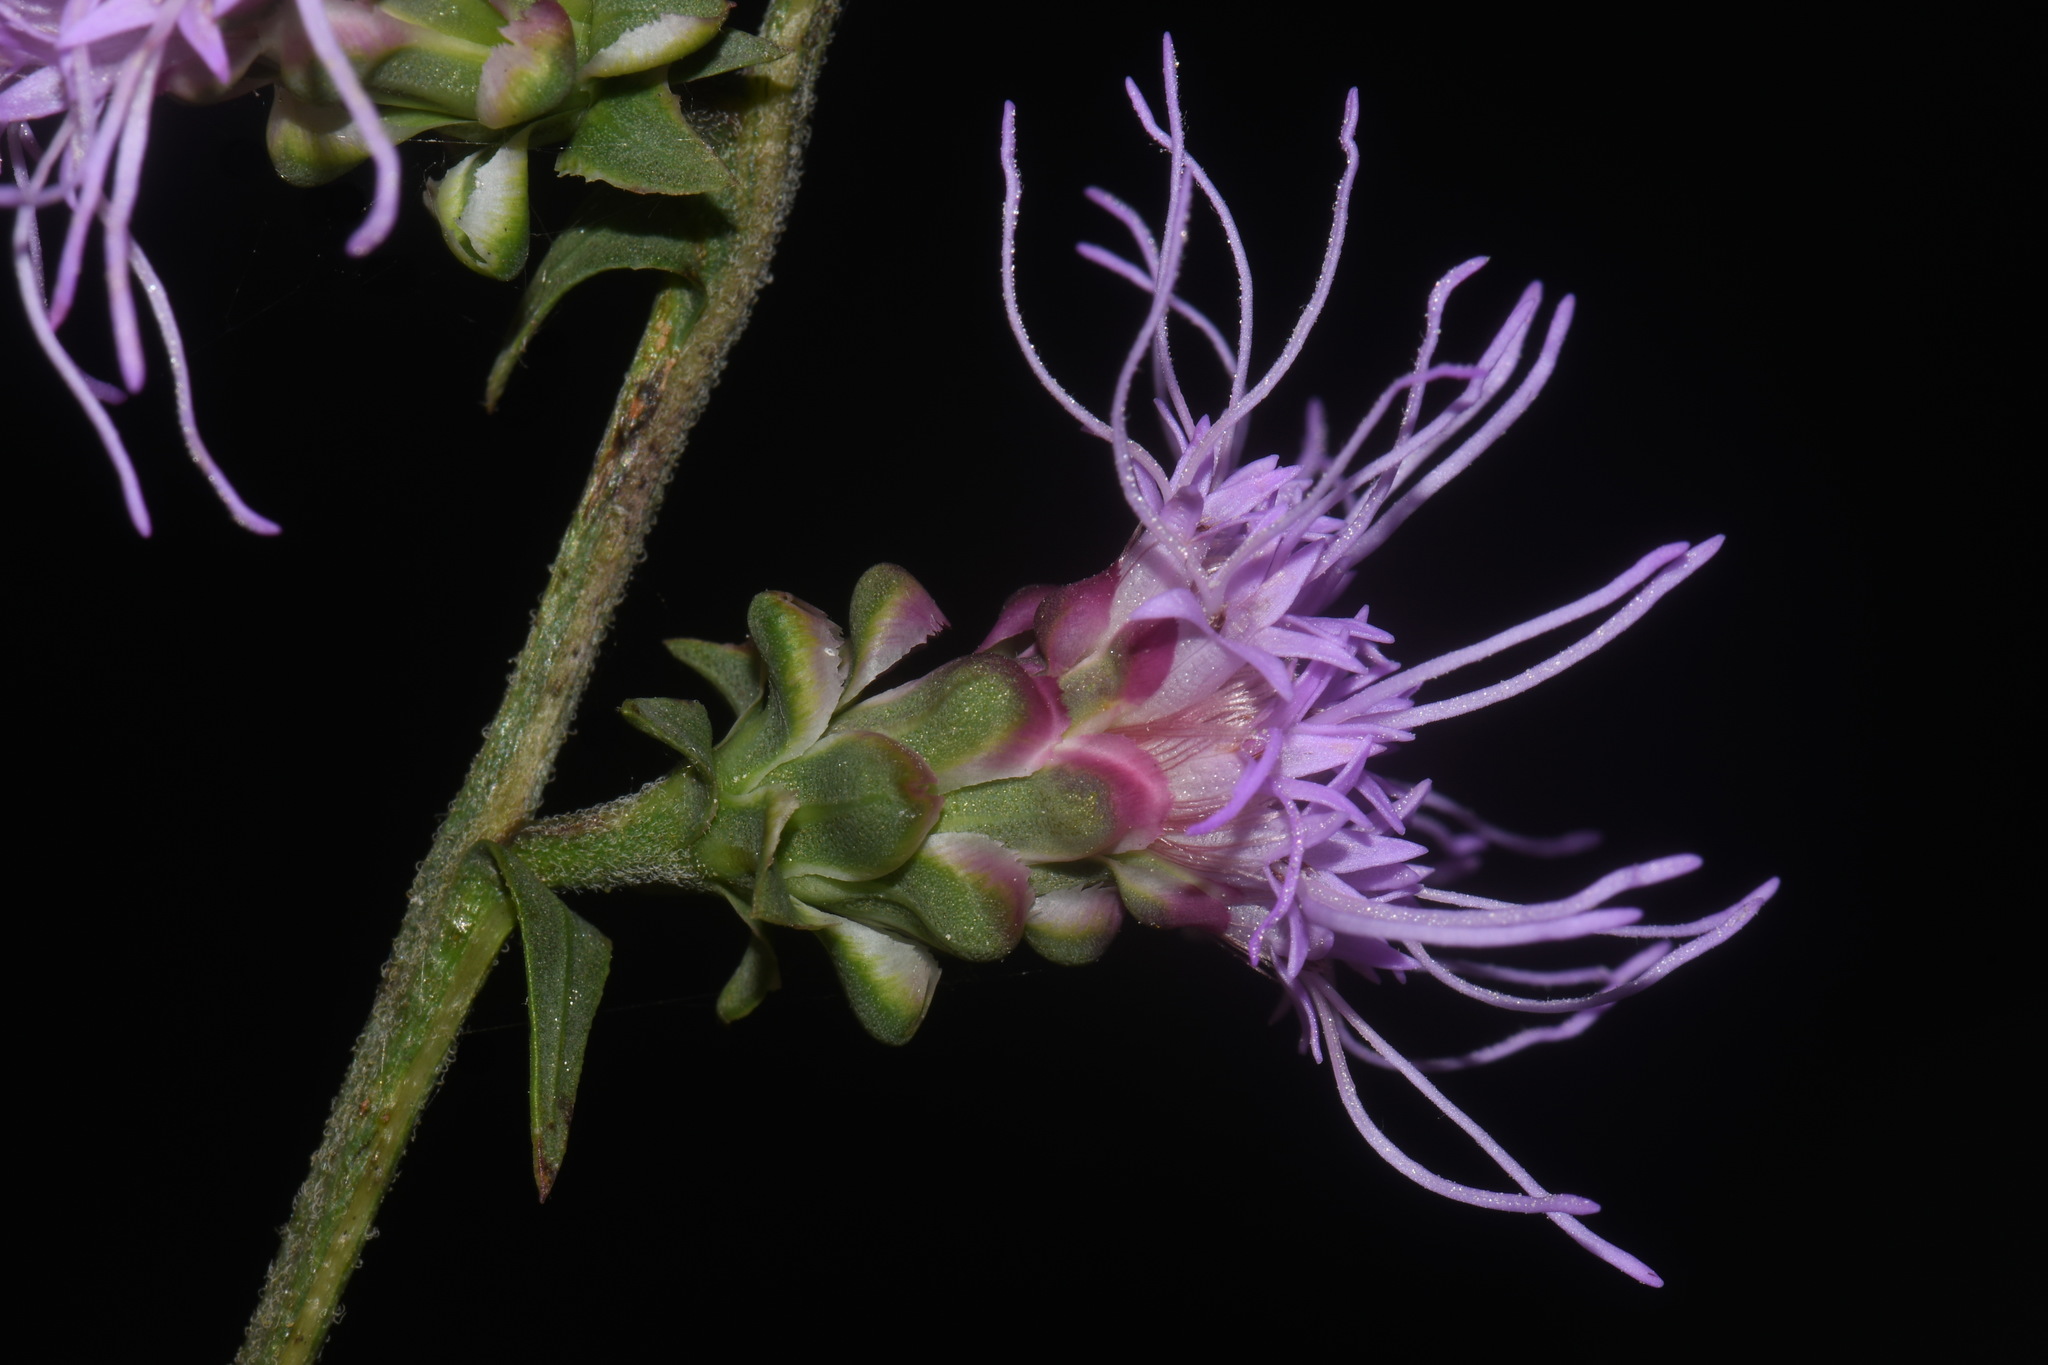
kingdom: Plantae
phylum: Tracheophyta
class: Magnoliopsida
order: Asterales
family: Asteraceae
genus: Liatris
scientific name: Liatris aspera
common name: Lacerate blazing-star
